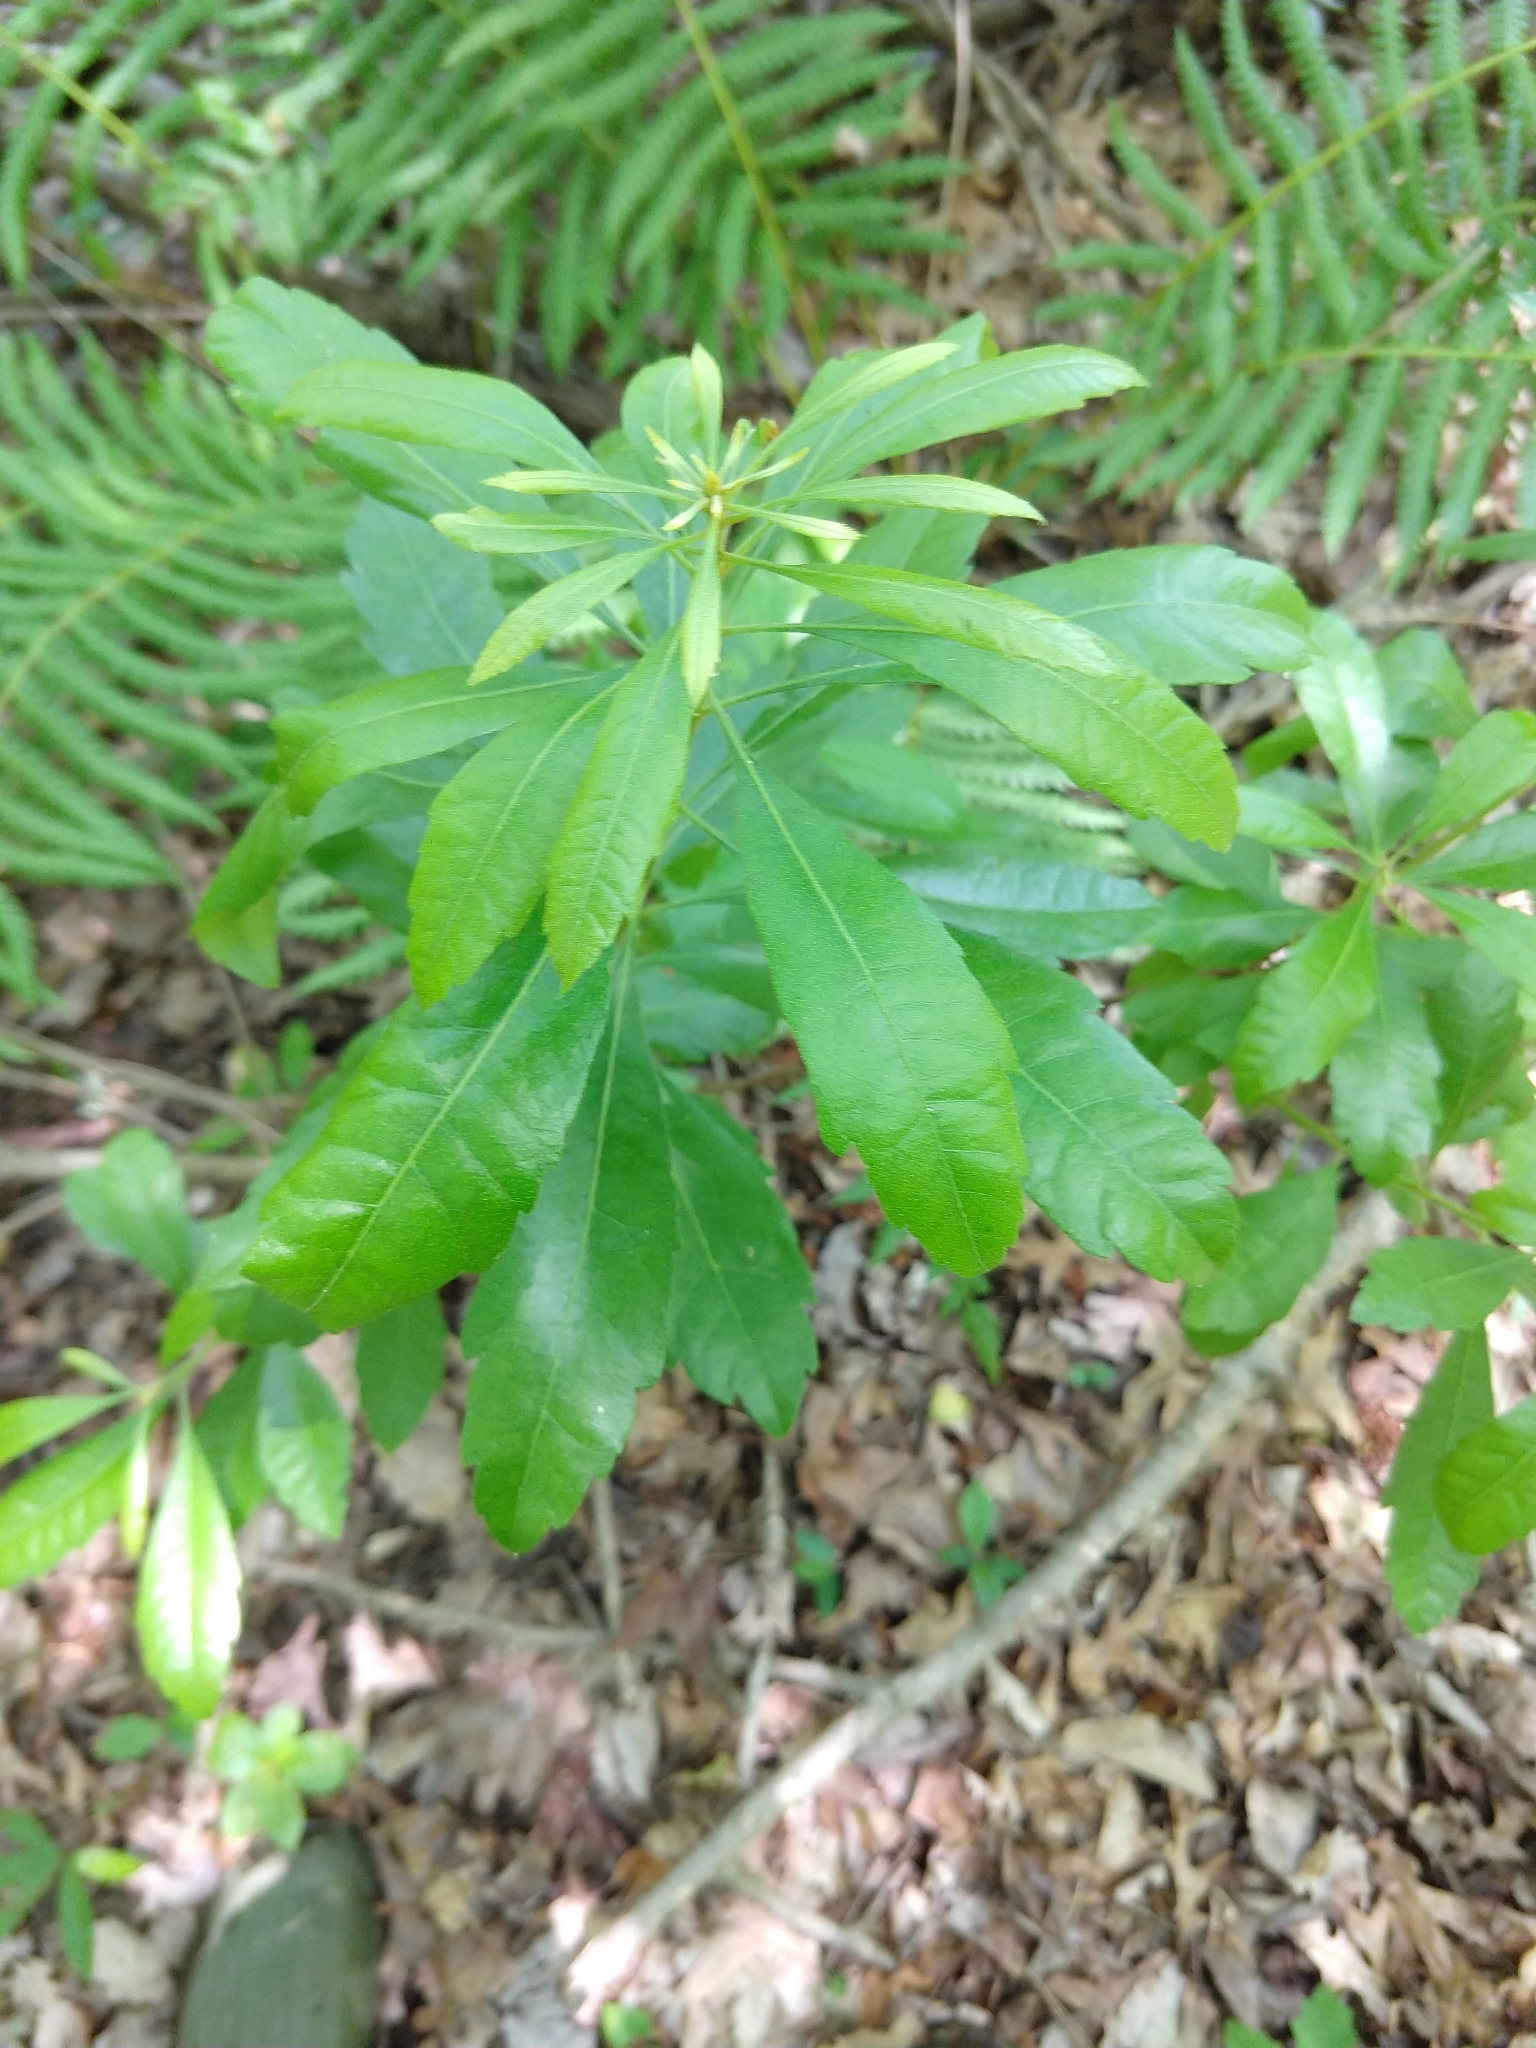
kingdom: Plantae
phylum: Tracheophyta
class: Magnoliopsida
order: Fagales
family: Myricaceae
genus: Morella
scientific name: Morella cerifera
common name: Wax myrtle
